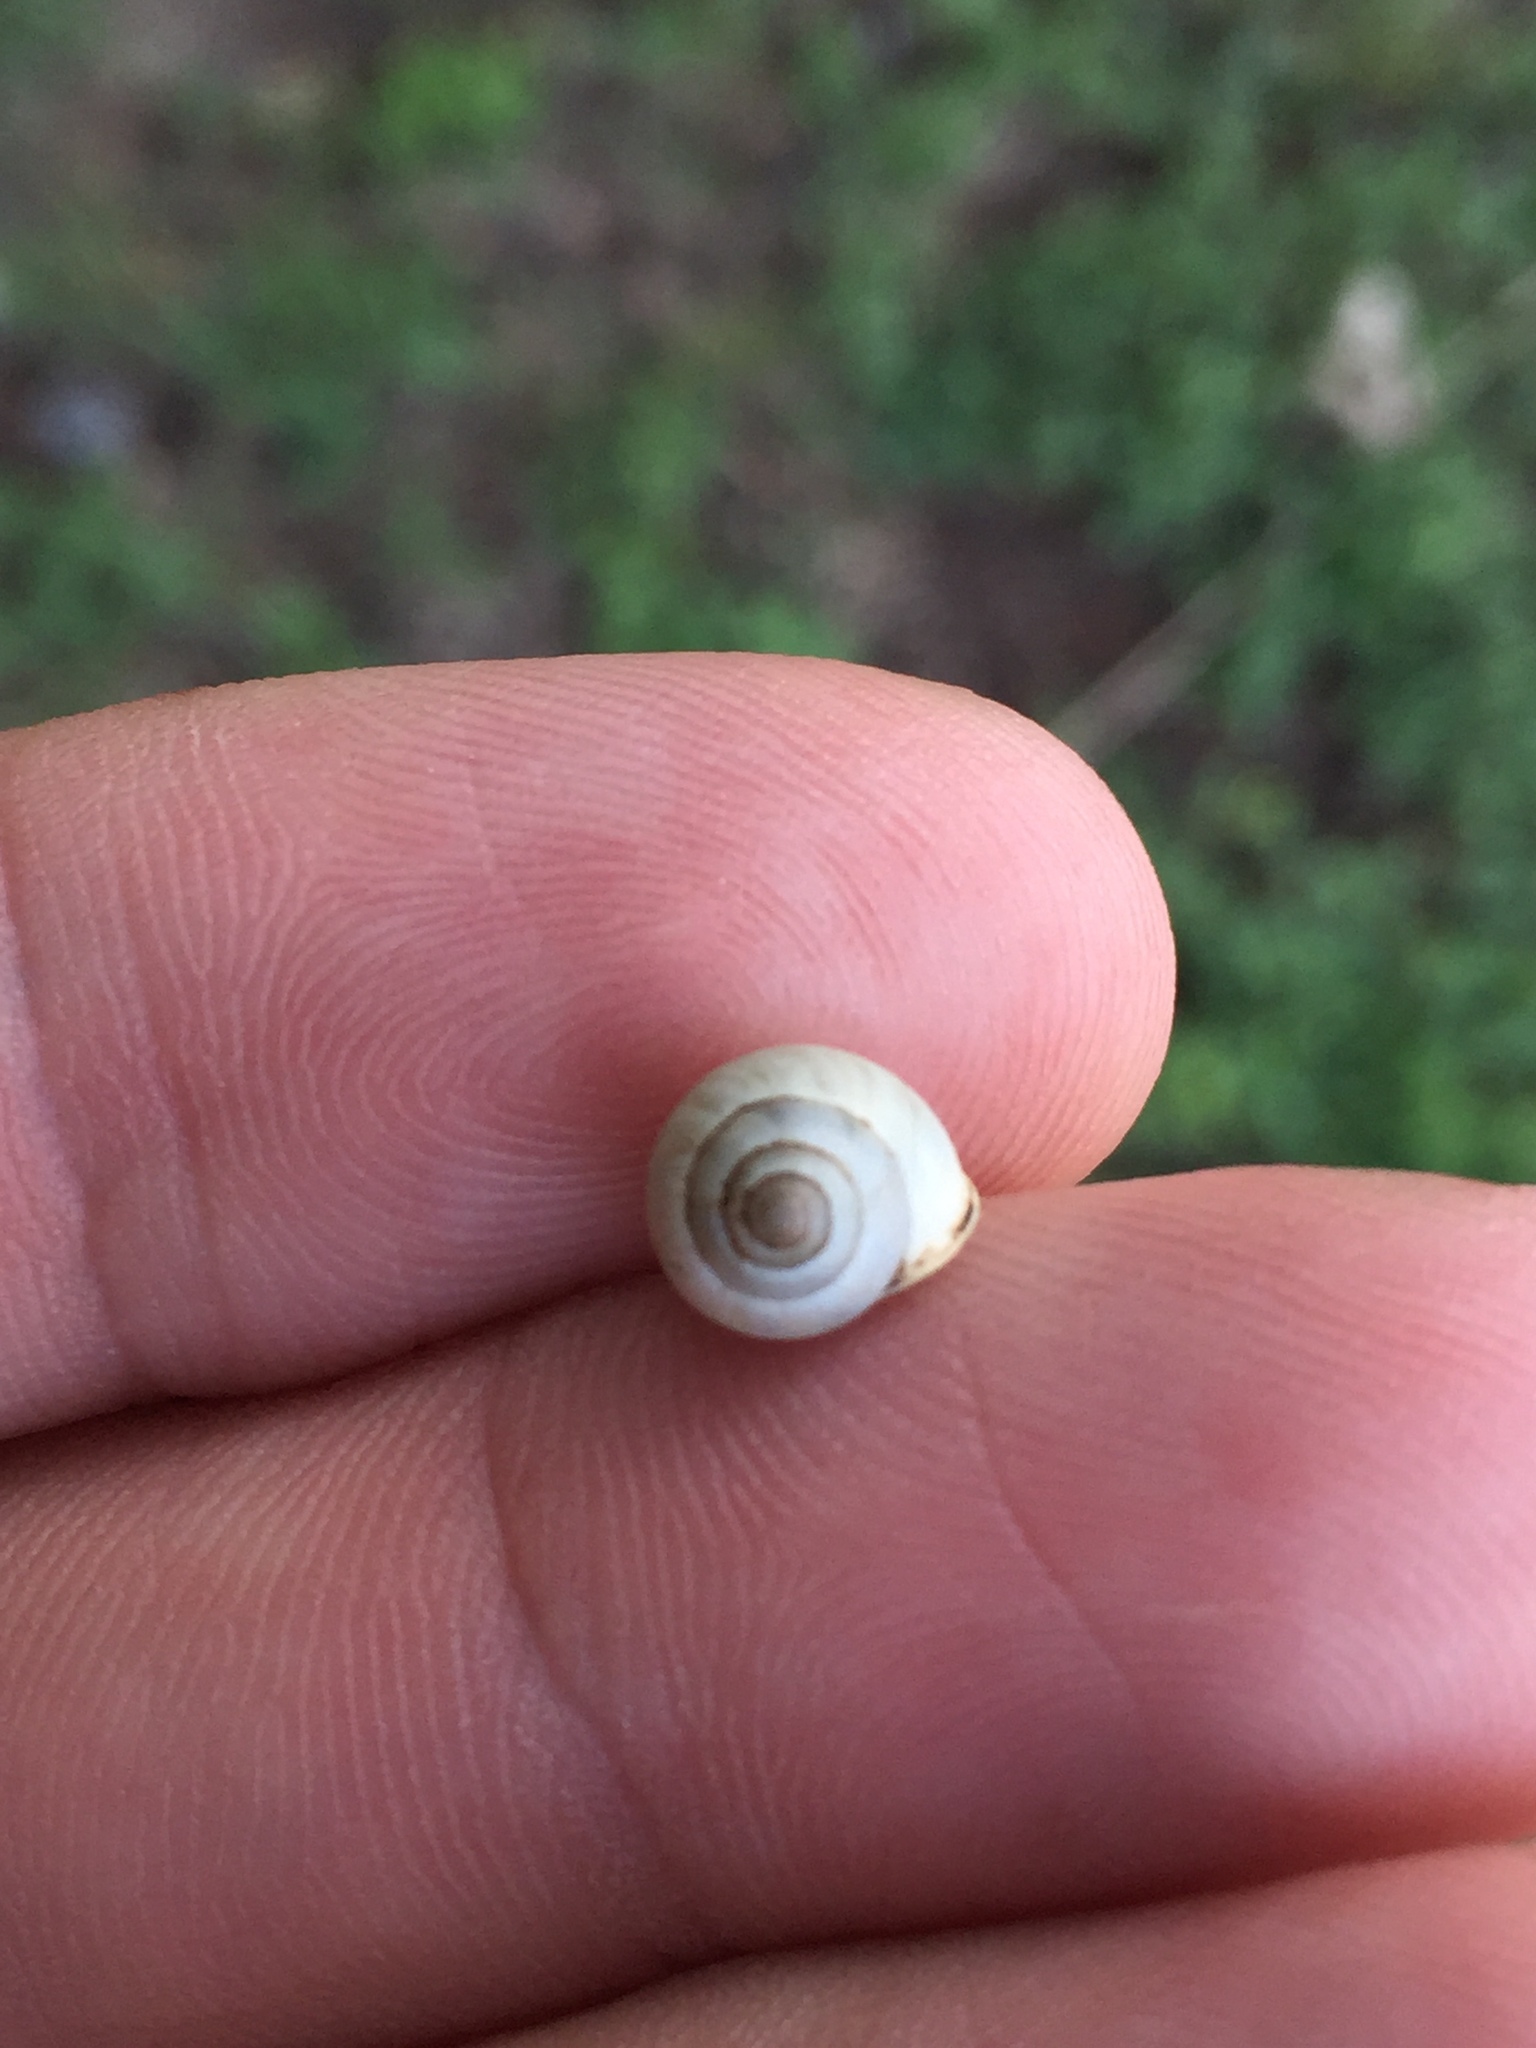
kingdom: Animalia
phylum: Mollusca
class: Gastropoda
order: Cycloneritida
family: Helicinidae
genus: Helicina
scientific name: Helicina orbiculata
